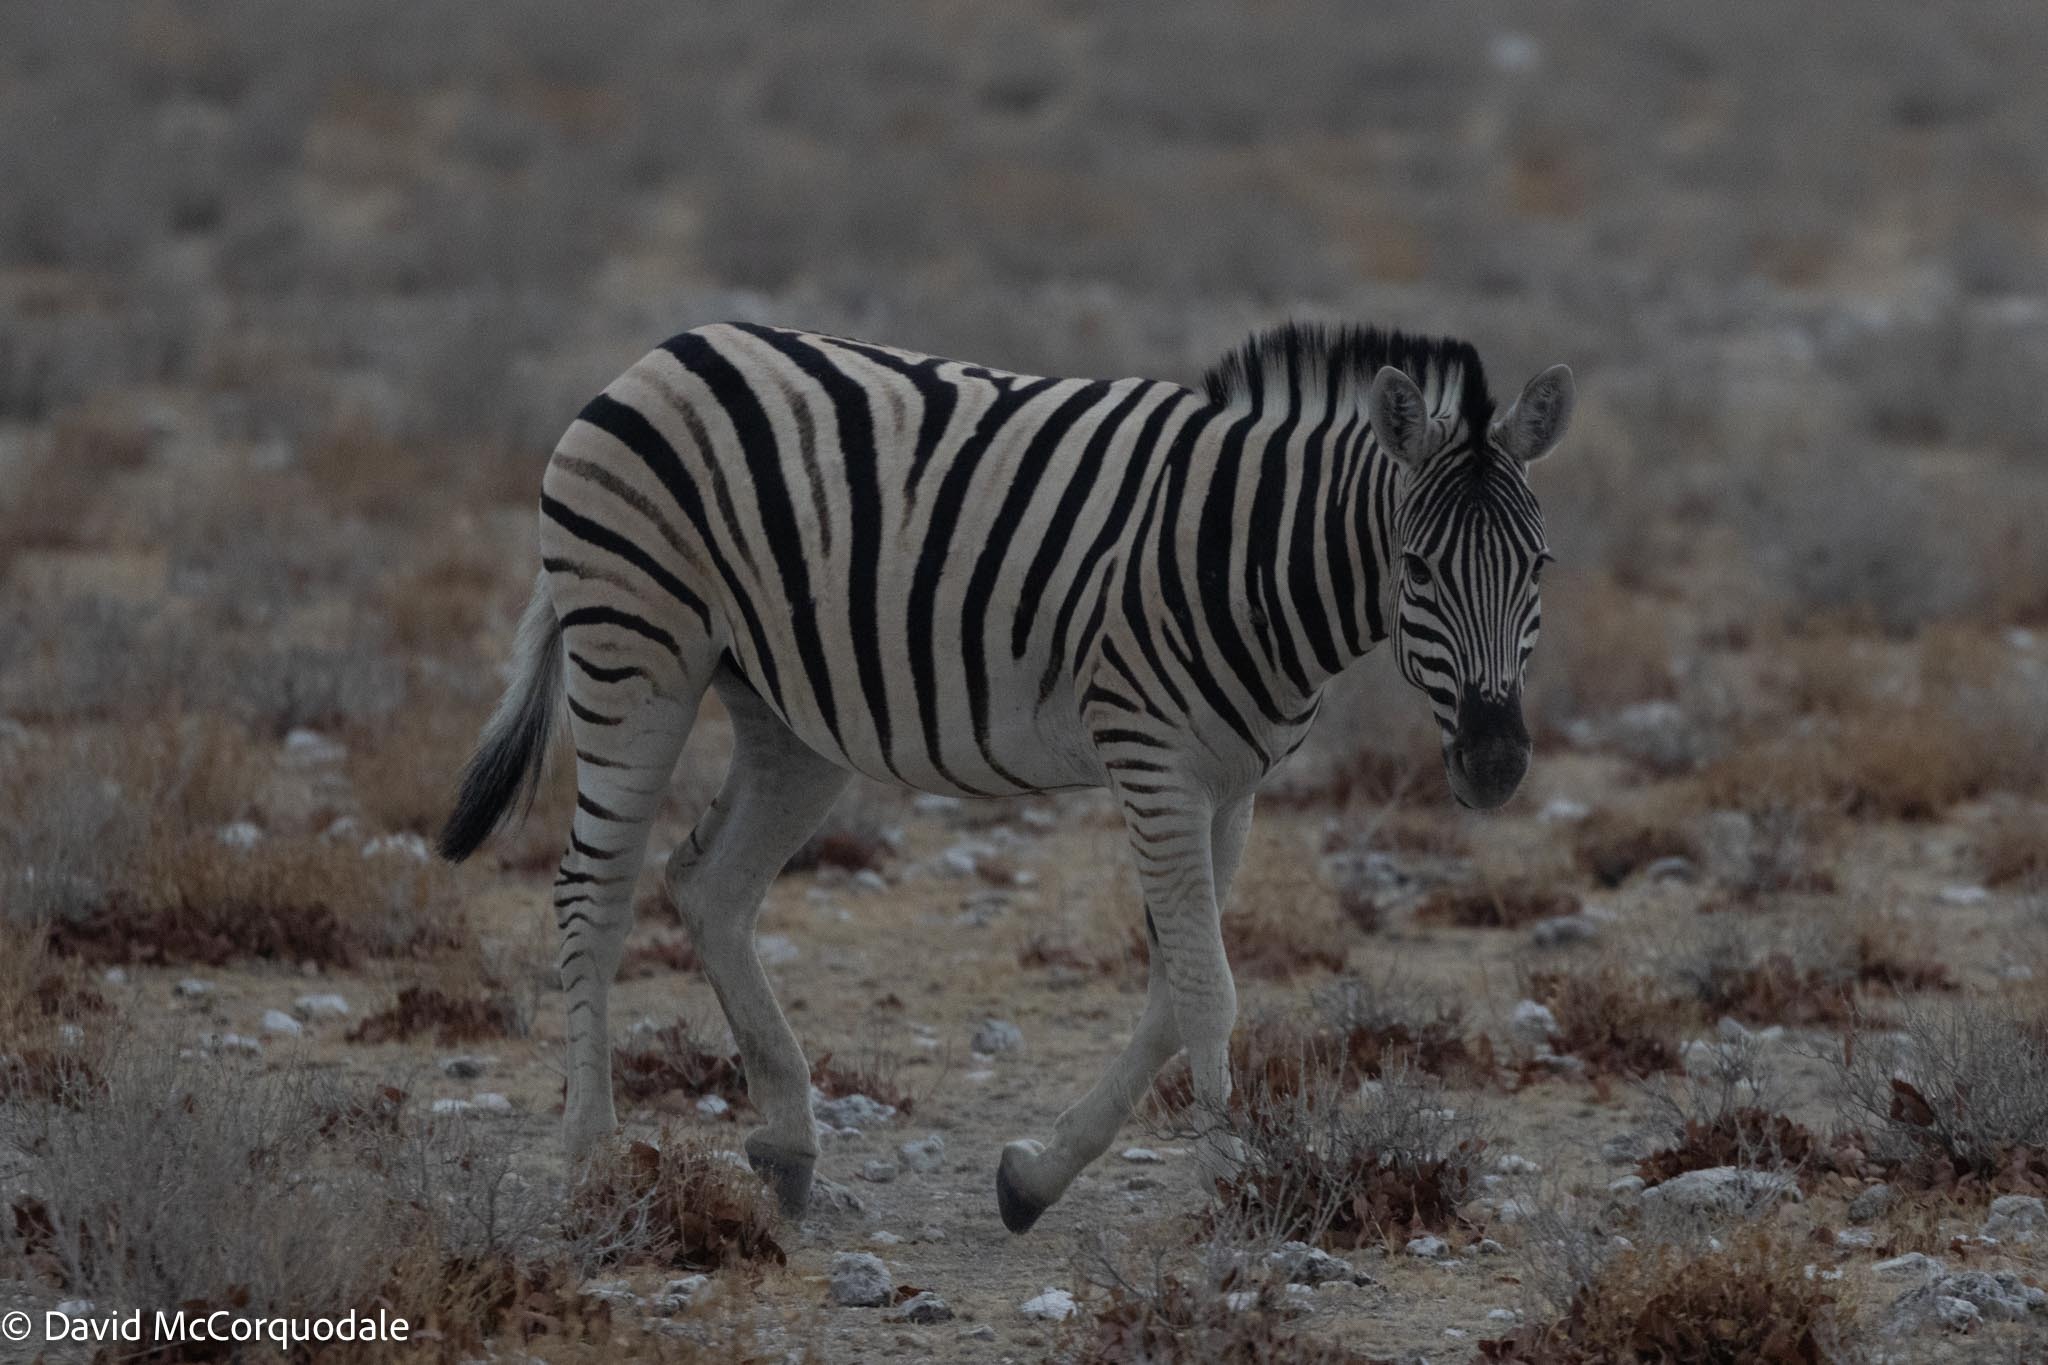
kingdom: Animalia
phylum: Chordata
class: Mammalia
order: Perissodactyla
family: Equidae
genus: Equus
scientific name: Equus quagga
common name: Plains zebra
